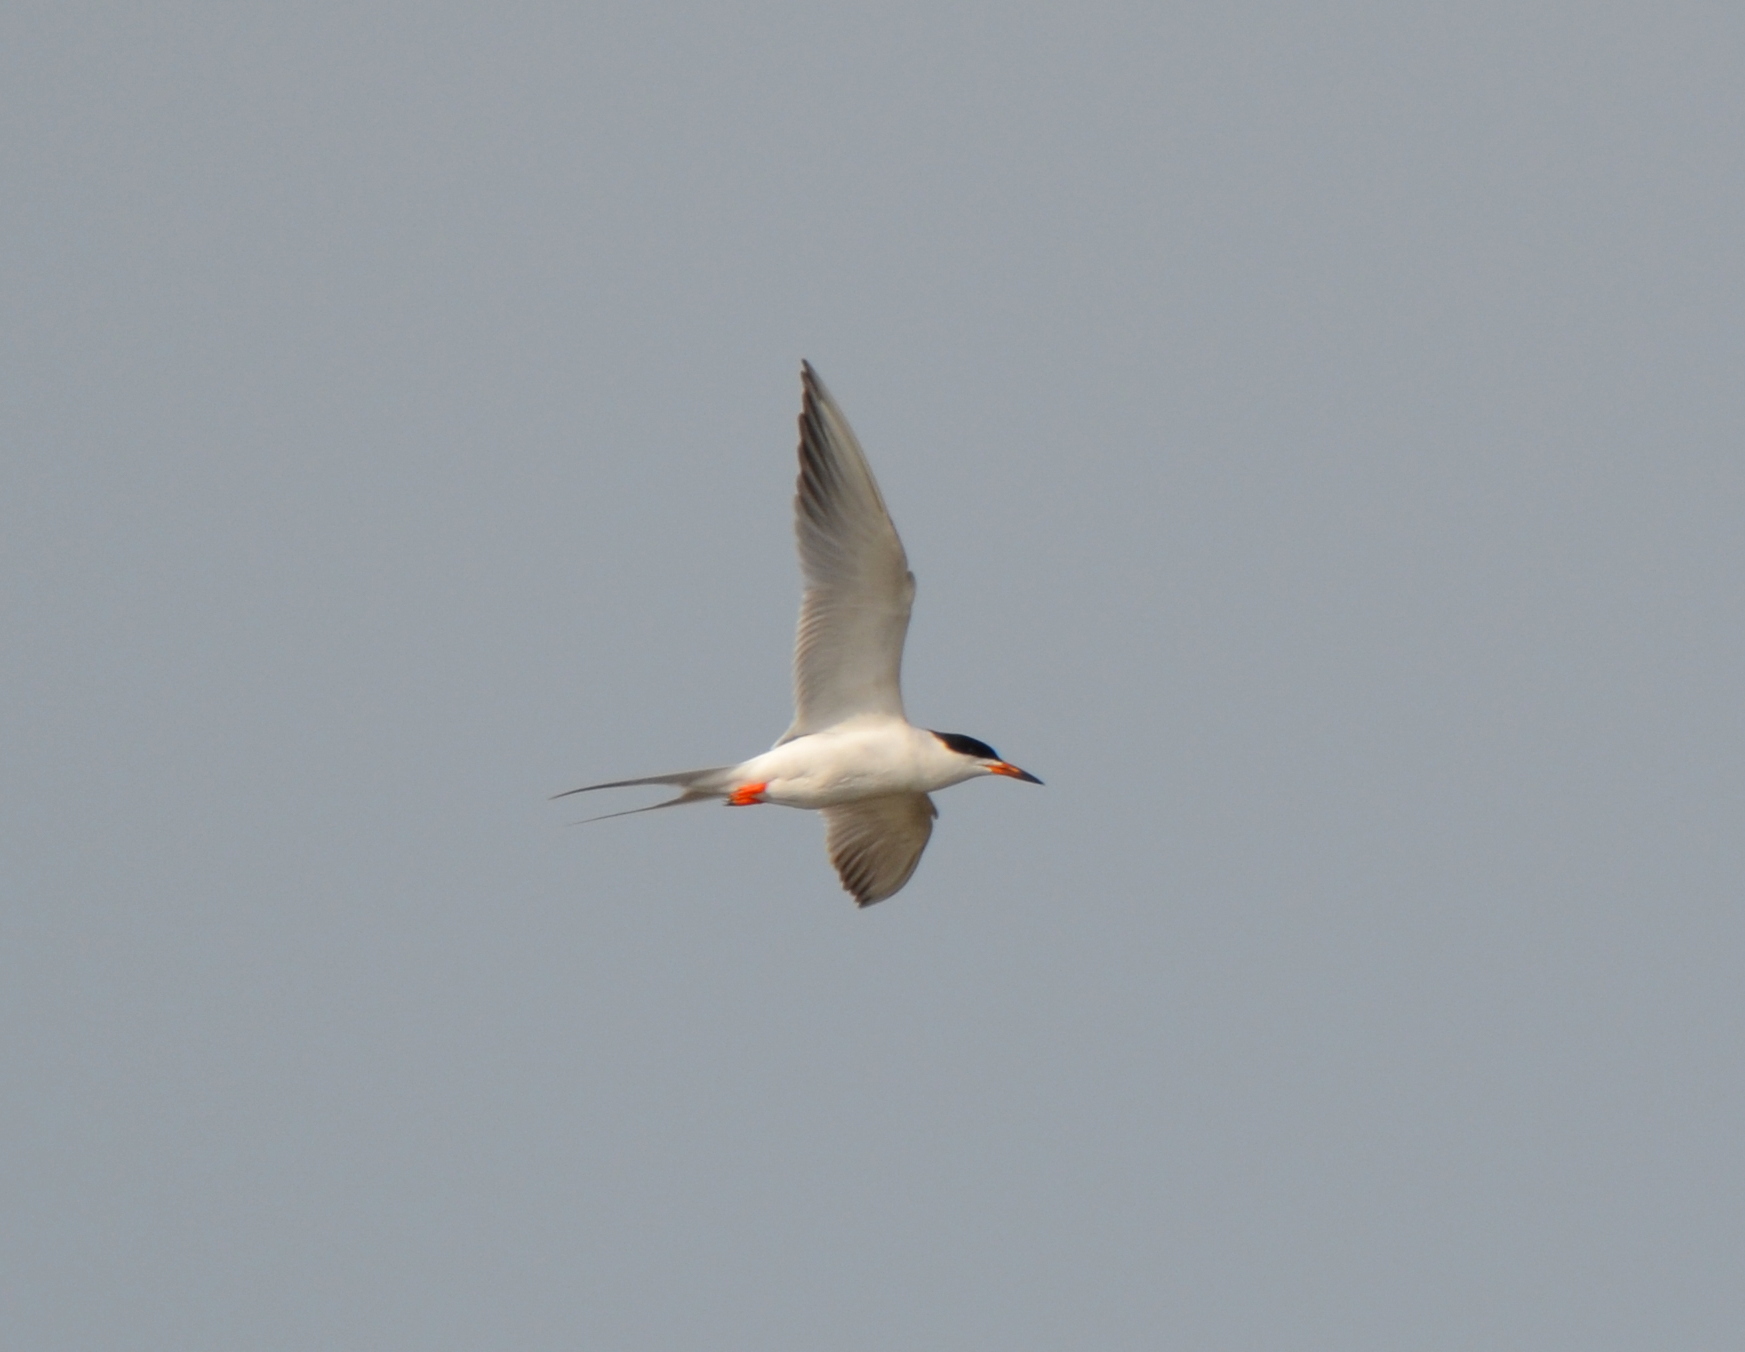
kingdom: Animalia
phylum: Chordata
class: Aves
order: Charadriiformes
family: Laridae
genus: Sterna
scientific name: Sterna forsteri
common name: Forster's tern
